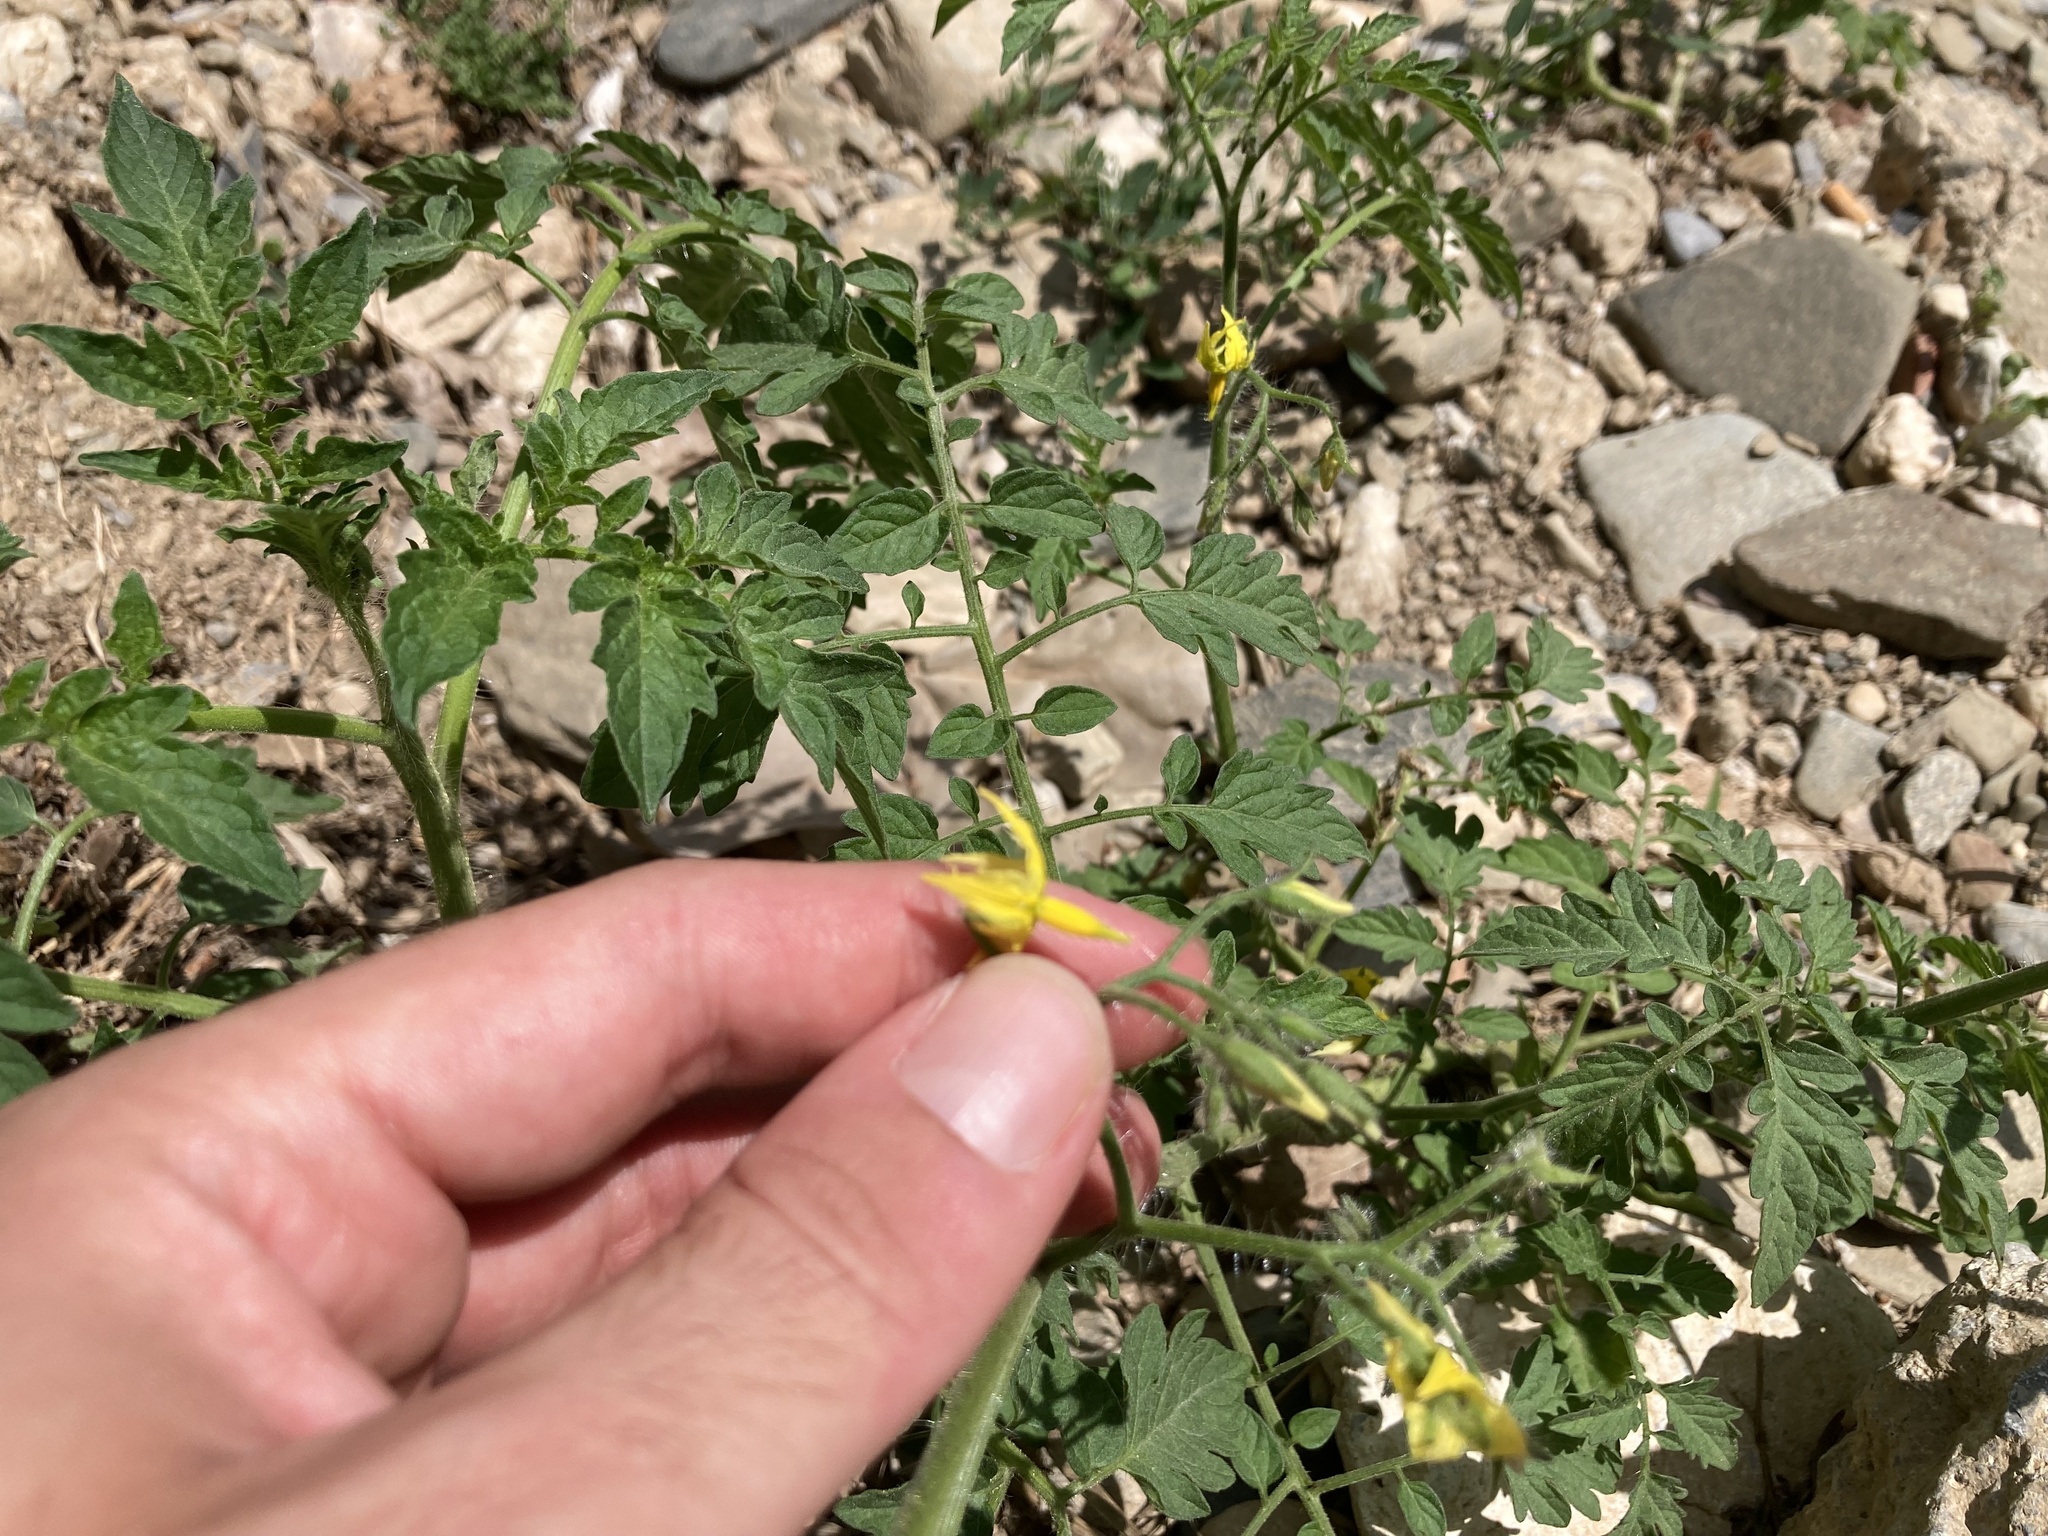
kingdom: Plantae
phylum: Tracheophyta
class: Magnoliopsida
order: Solanales
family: Solanaceae
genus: Solanum
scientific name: Solanum lycopersicum
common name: Garden tomato
